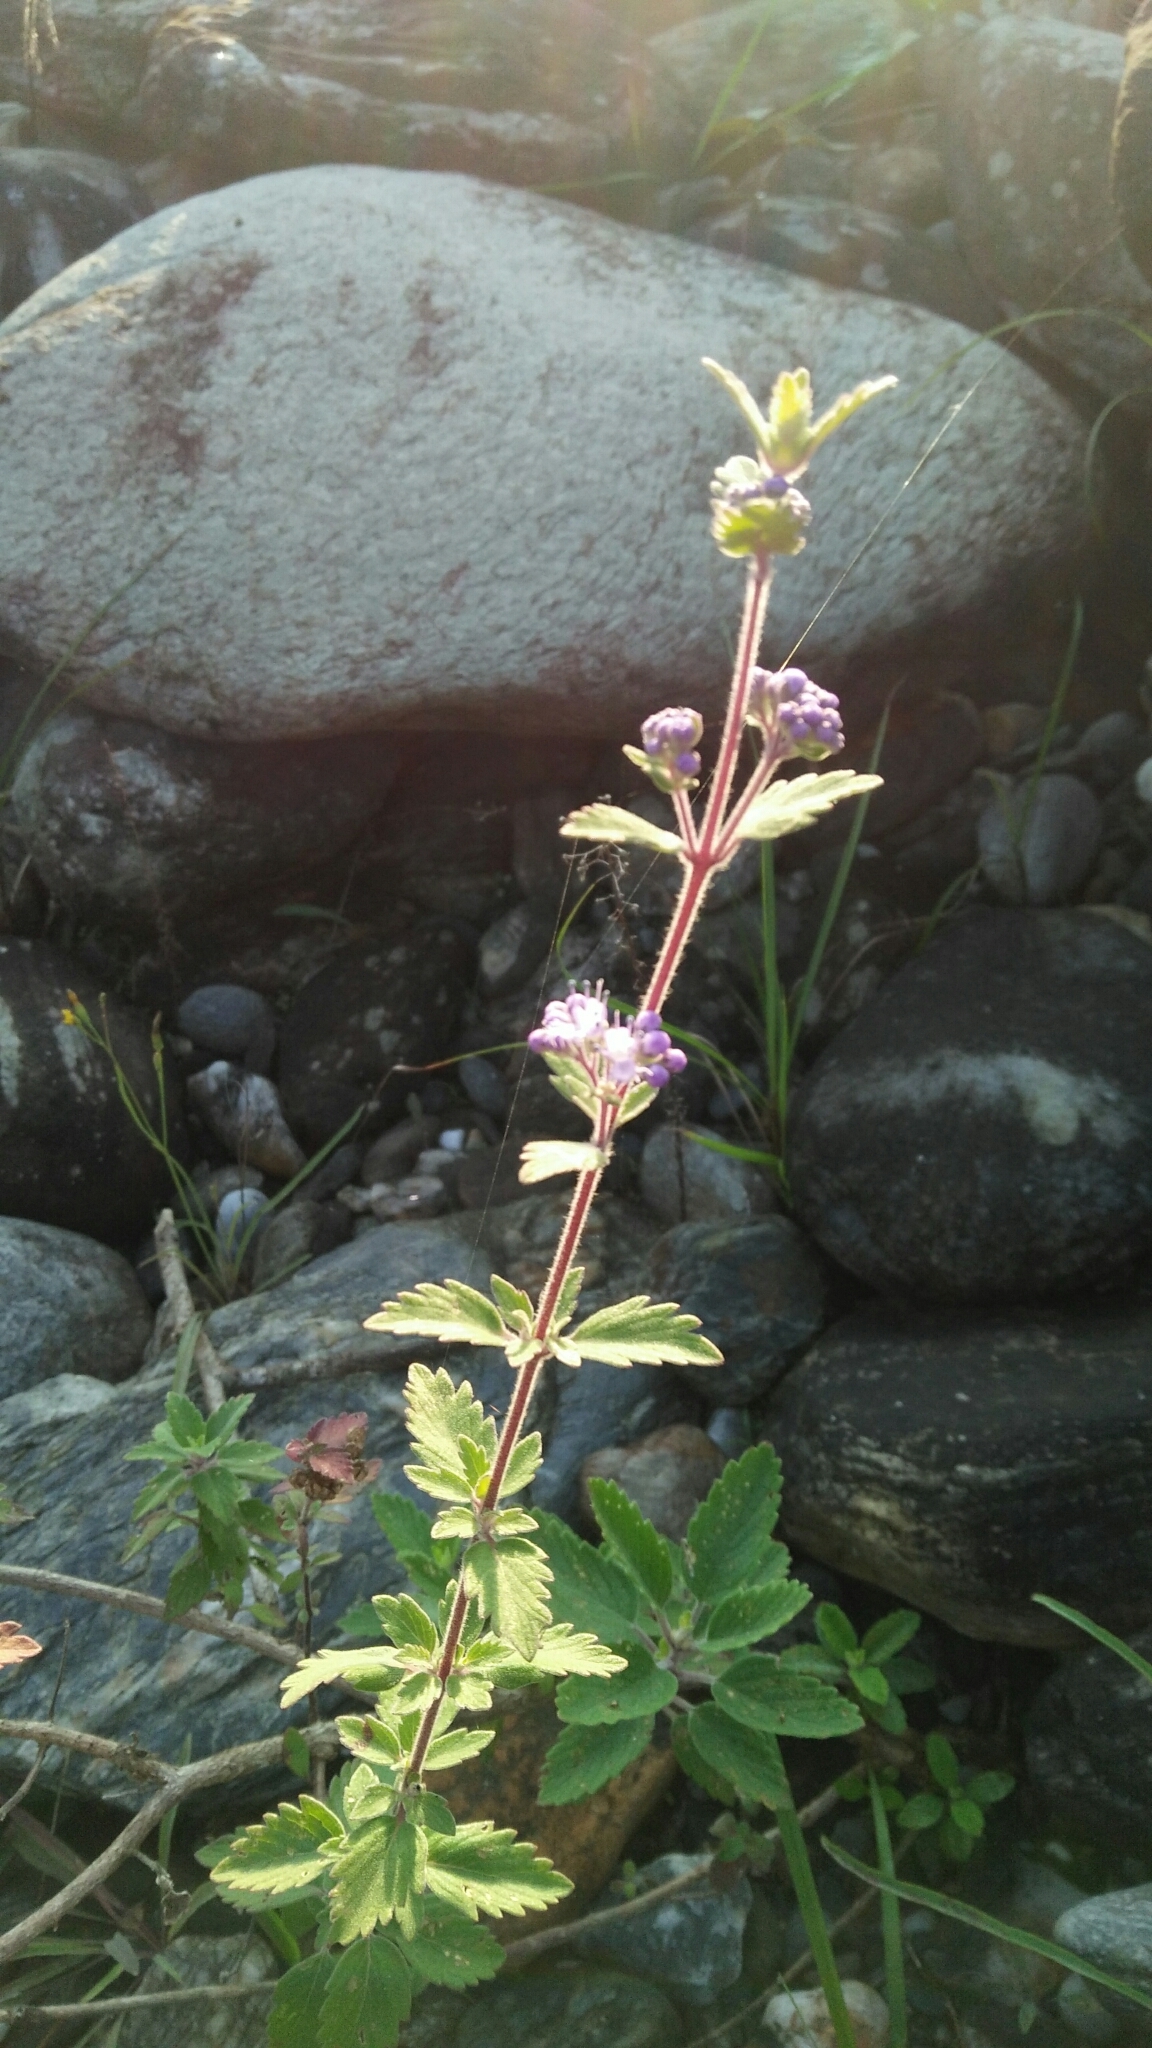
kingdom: Plantae
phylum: Tracheophyta
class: Magnoliopsida
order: Lamiales
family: Lamiaceae
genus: Caryopteris
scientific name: Caryopteris incana
